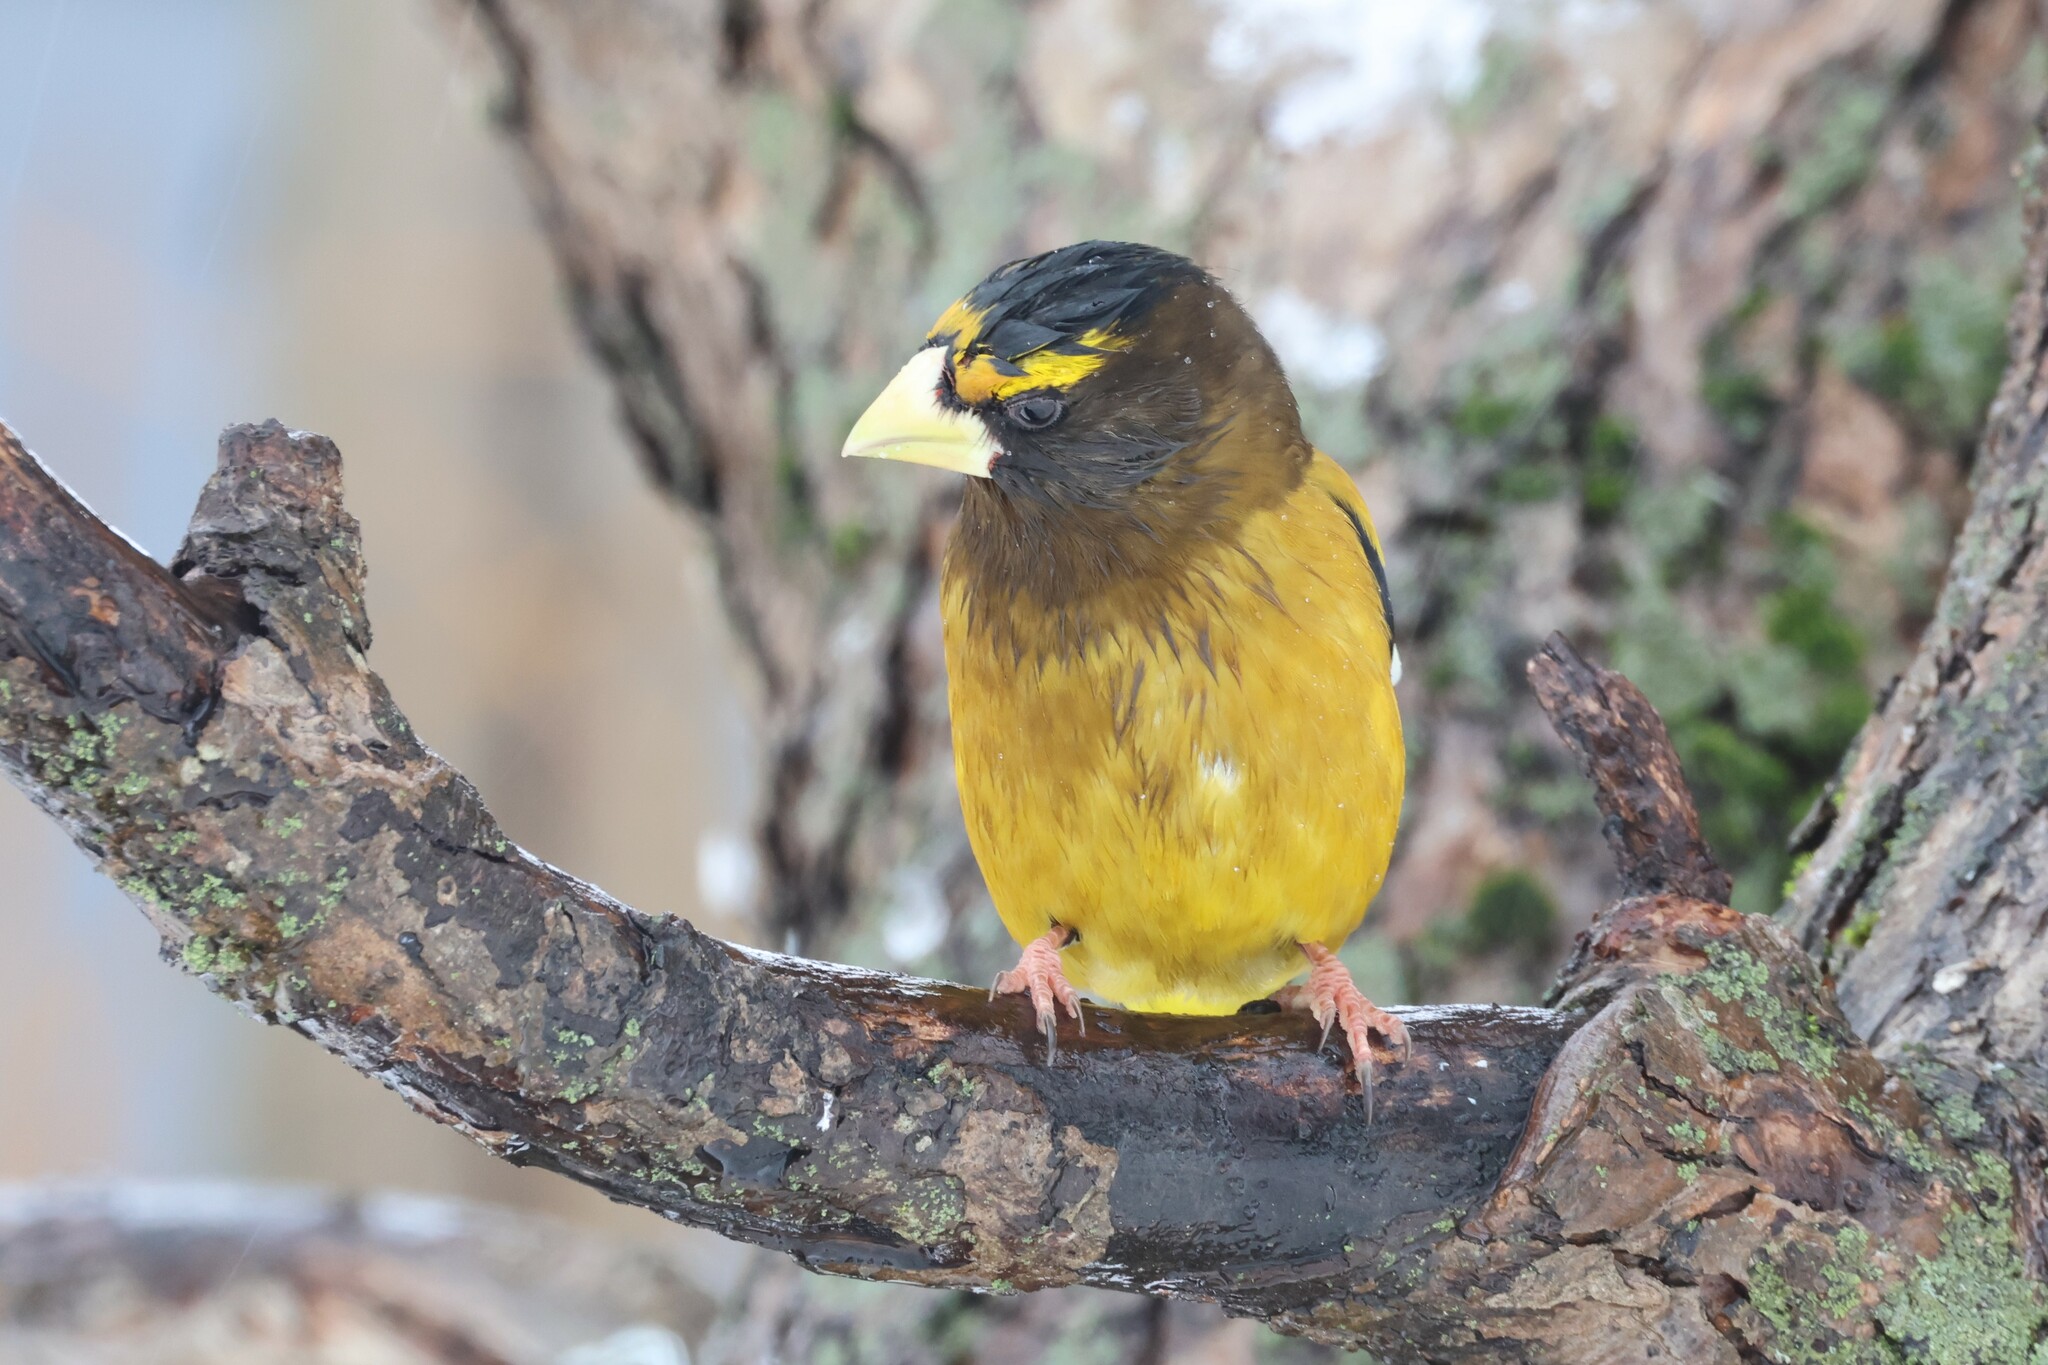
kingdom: Animalia
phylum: Chordata
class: Aves
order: Passeriformes
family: Fringillidae
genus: Hesperiphona
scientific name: Hesperiphona vespertina
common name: Evening grosbeak
